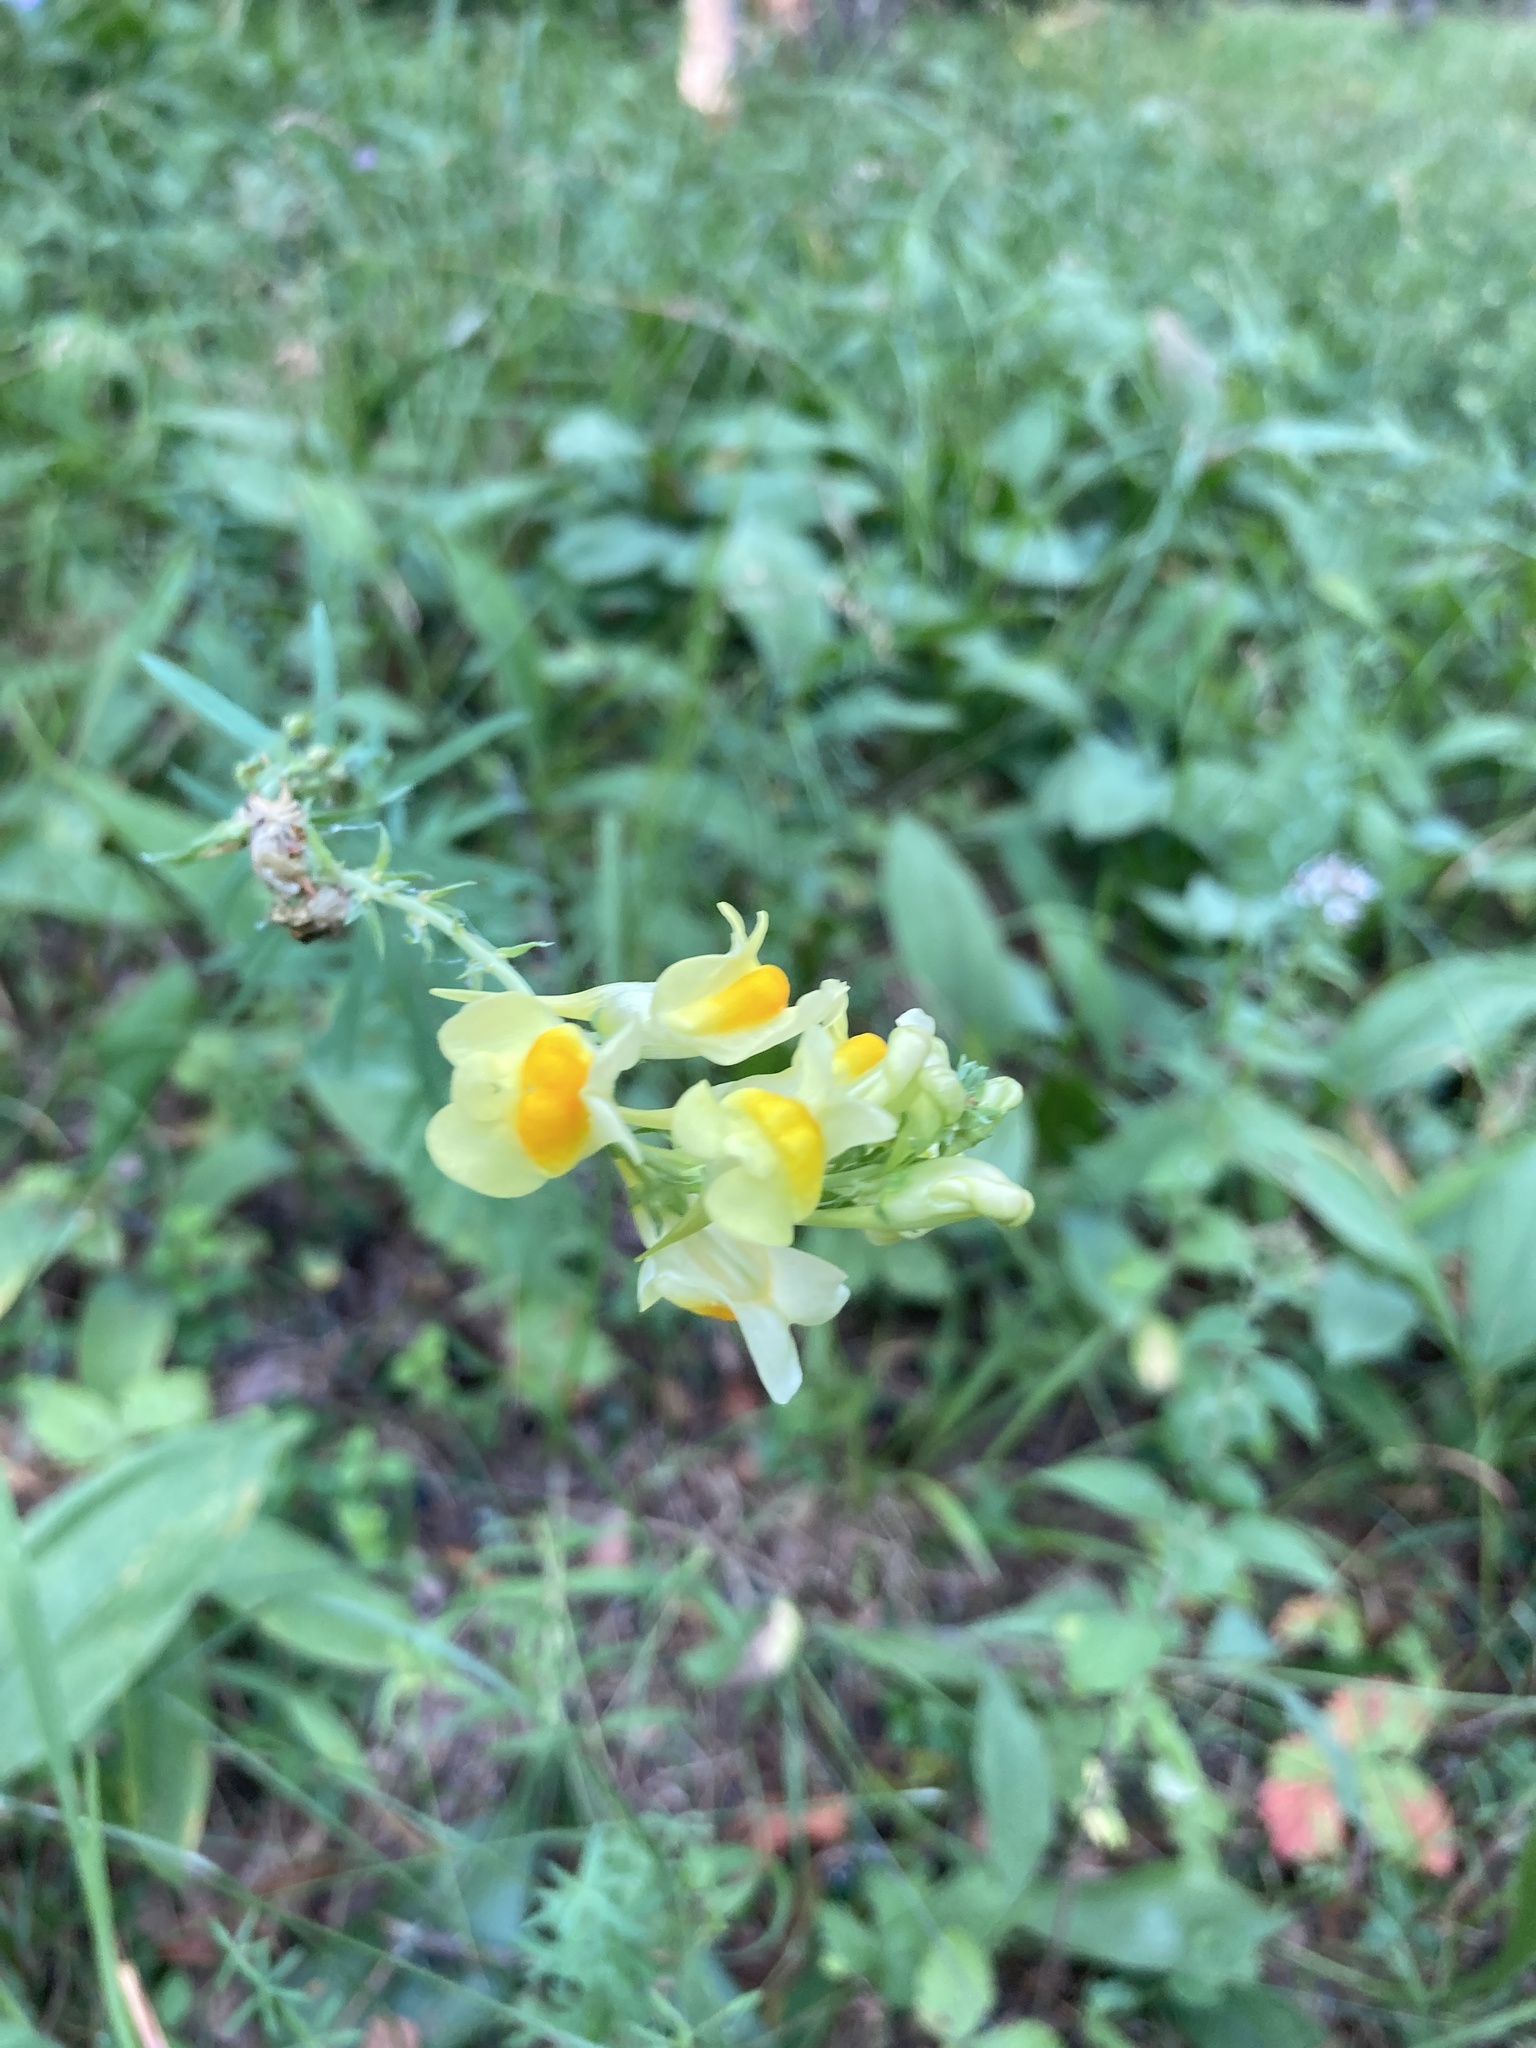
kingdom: Plantae
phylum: Tracheophyta
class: Magnoliopsida
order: Lamiales
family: Plantaginaceae
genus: Linaria
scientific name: Linaria vulgaris
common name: Butter and eggs
